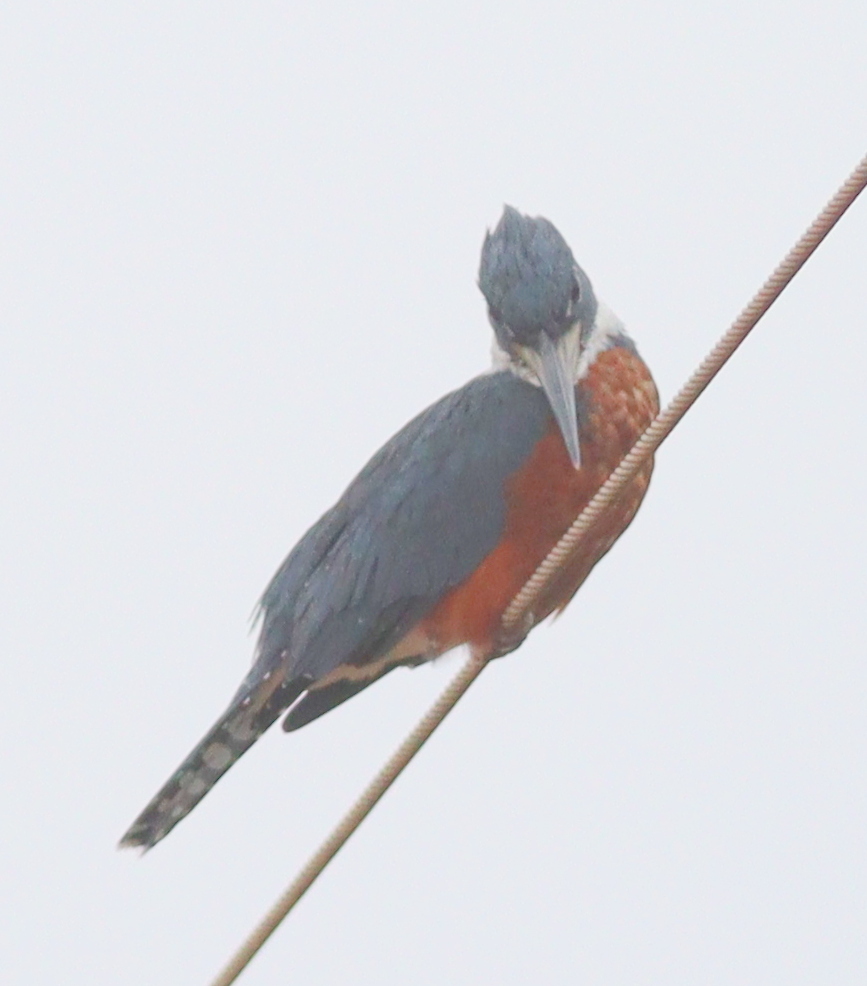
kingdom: Animalia
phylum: Chordata
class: Aves
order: Coraciiformes
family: Alcedinidae
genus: Megaceryle
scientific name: Megaceryle torquata
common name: Ringed kingfisher
